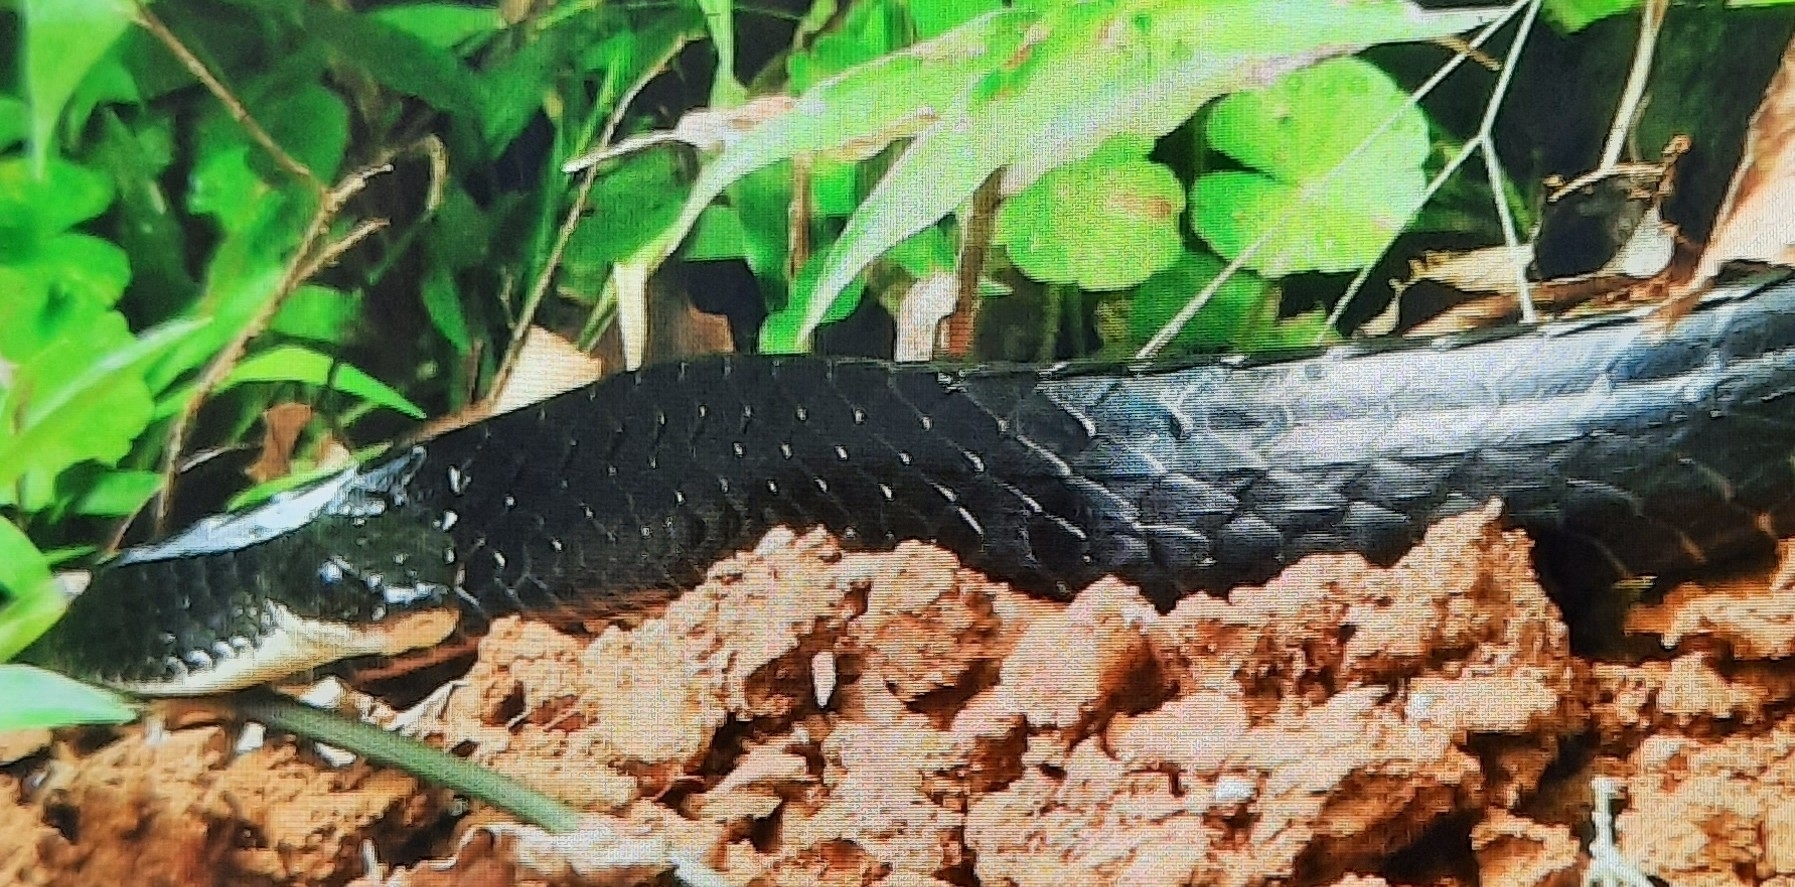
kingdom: Animalia
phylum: Chordata
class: Squamata
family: Colubridae
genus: Chironius
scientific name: Chironius grandisquamis
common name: Ecuador sipo
